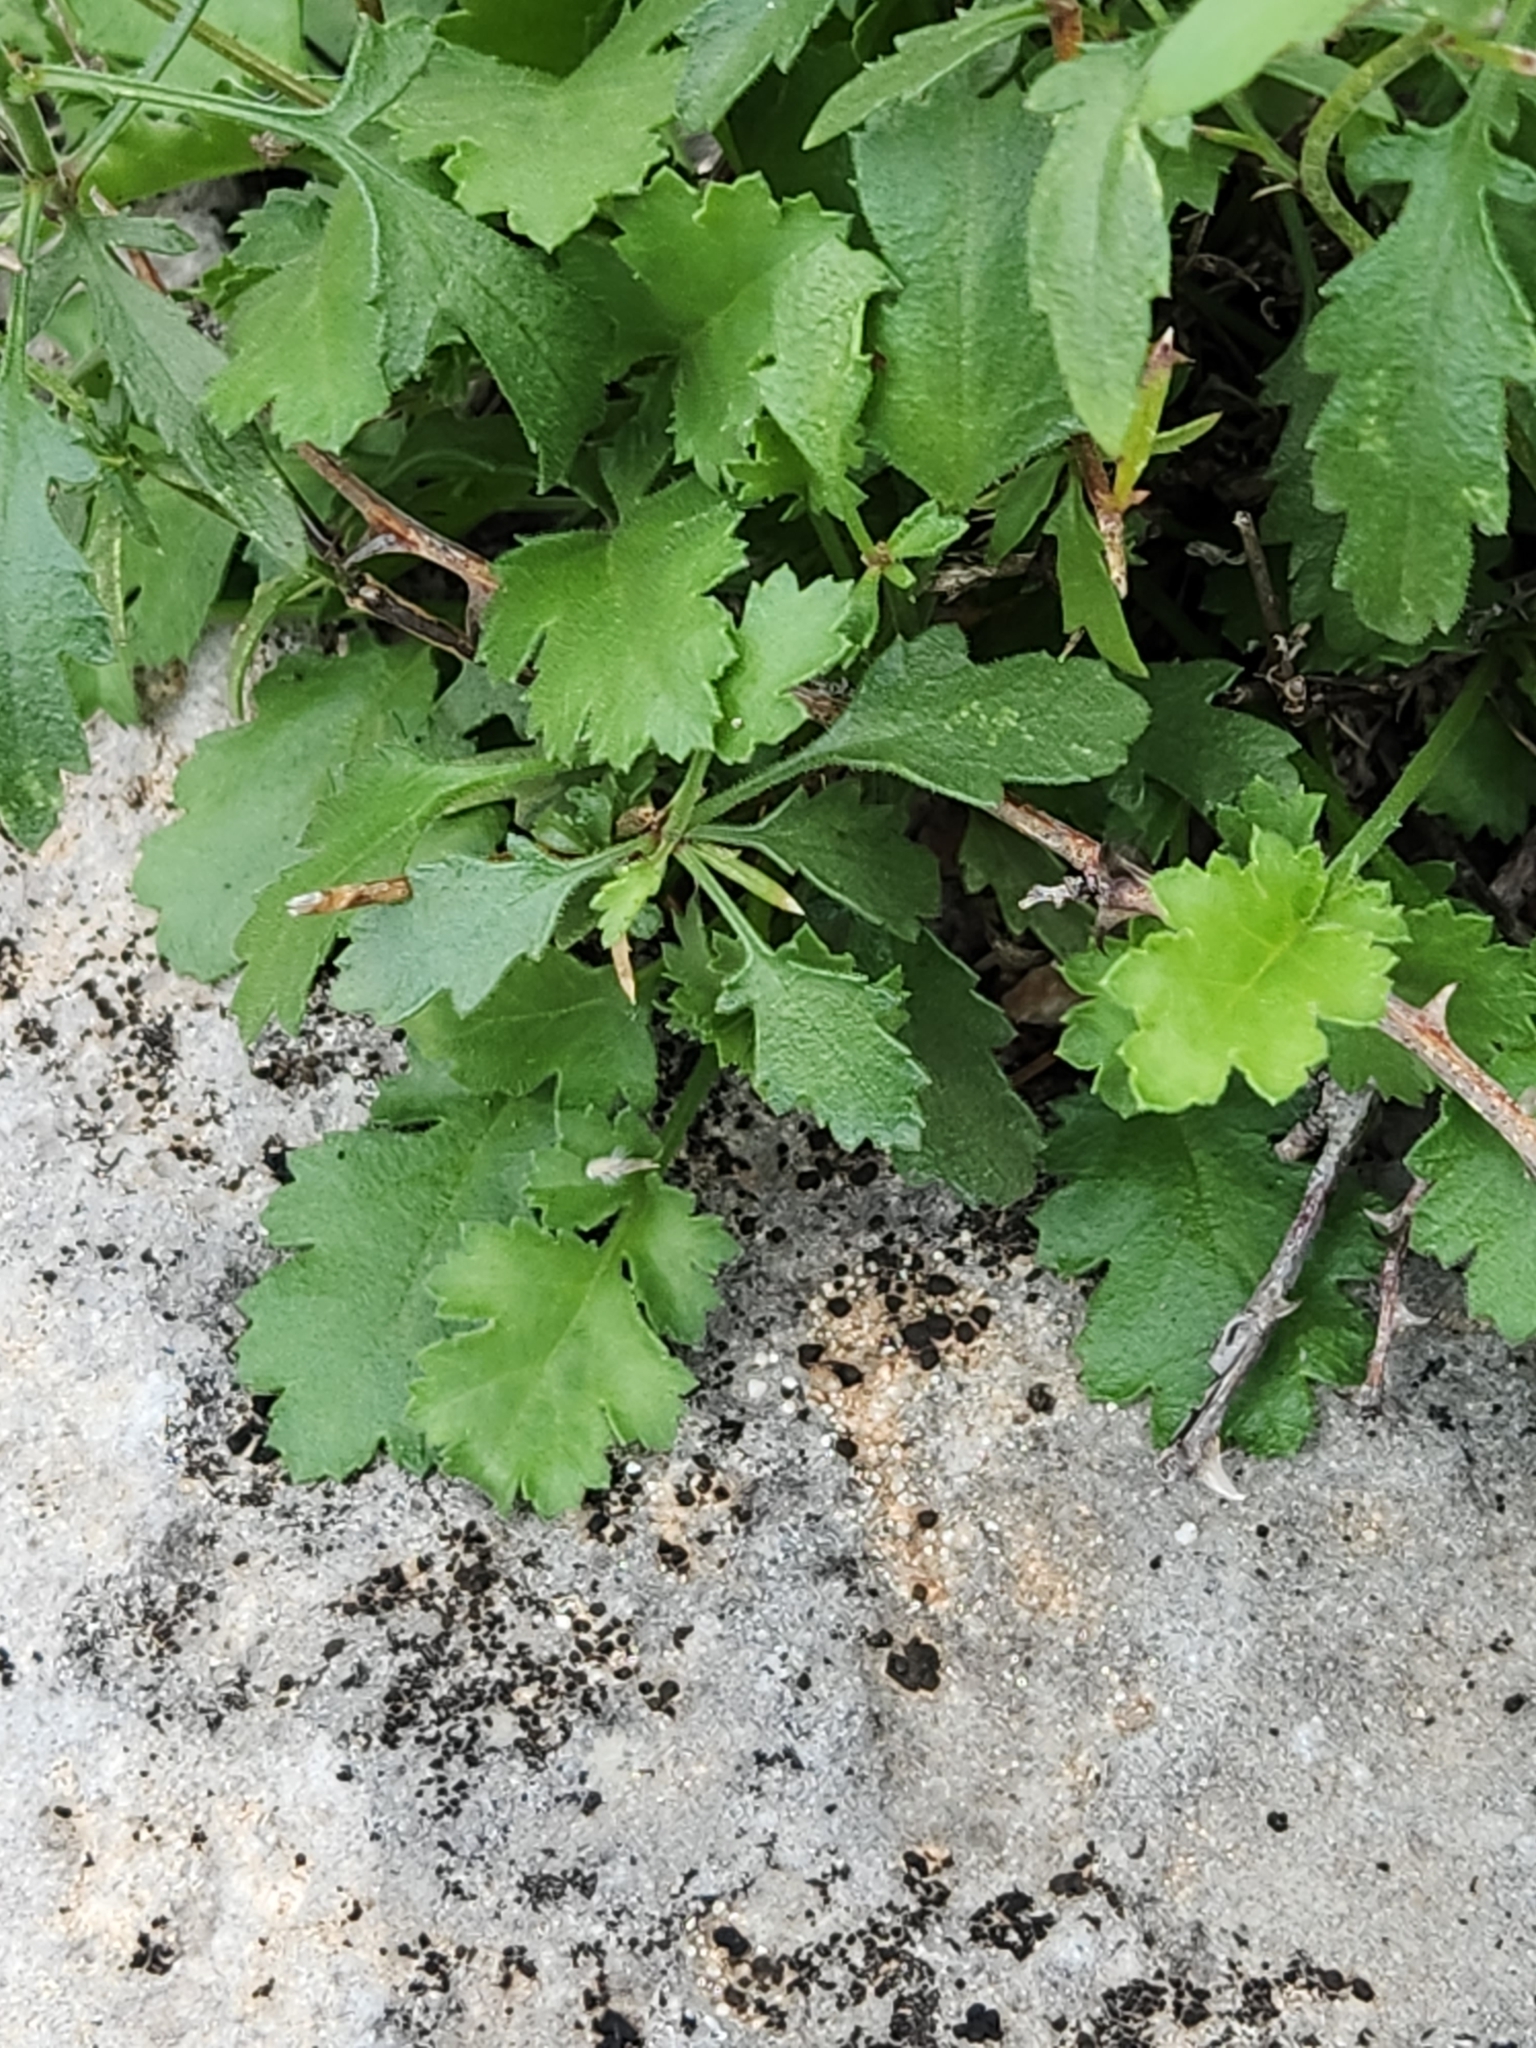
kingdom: Plantae
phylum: Tracheophyta
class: Magnoliopsida
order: Ericales
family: Polemoniaceae
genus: Giliastrum
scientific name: Giliastrum incisum
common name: Splitleaf gilia
